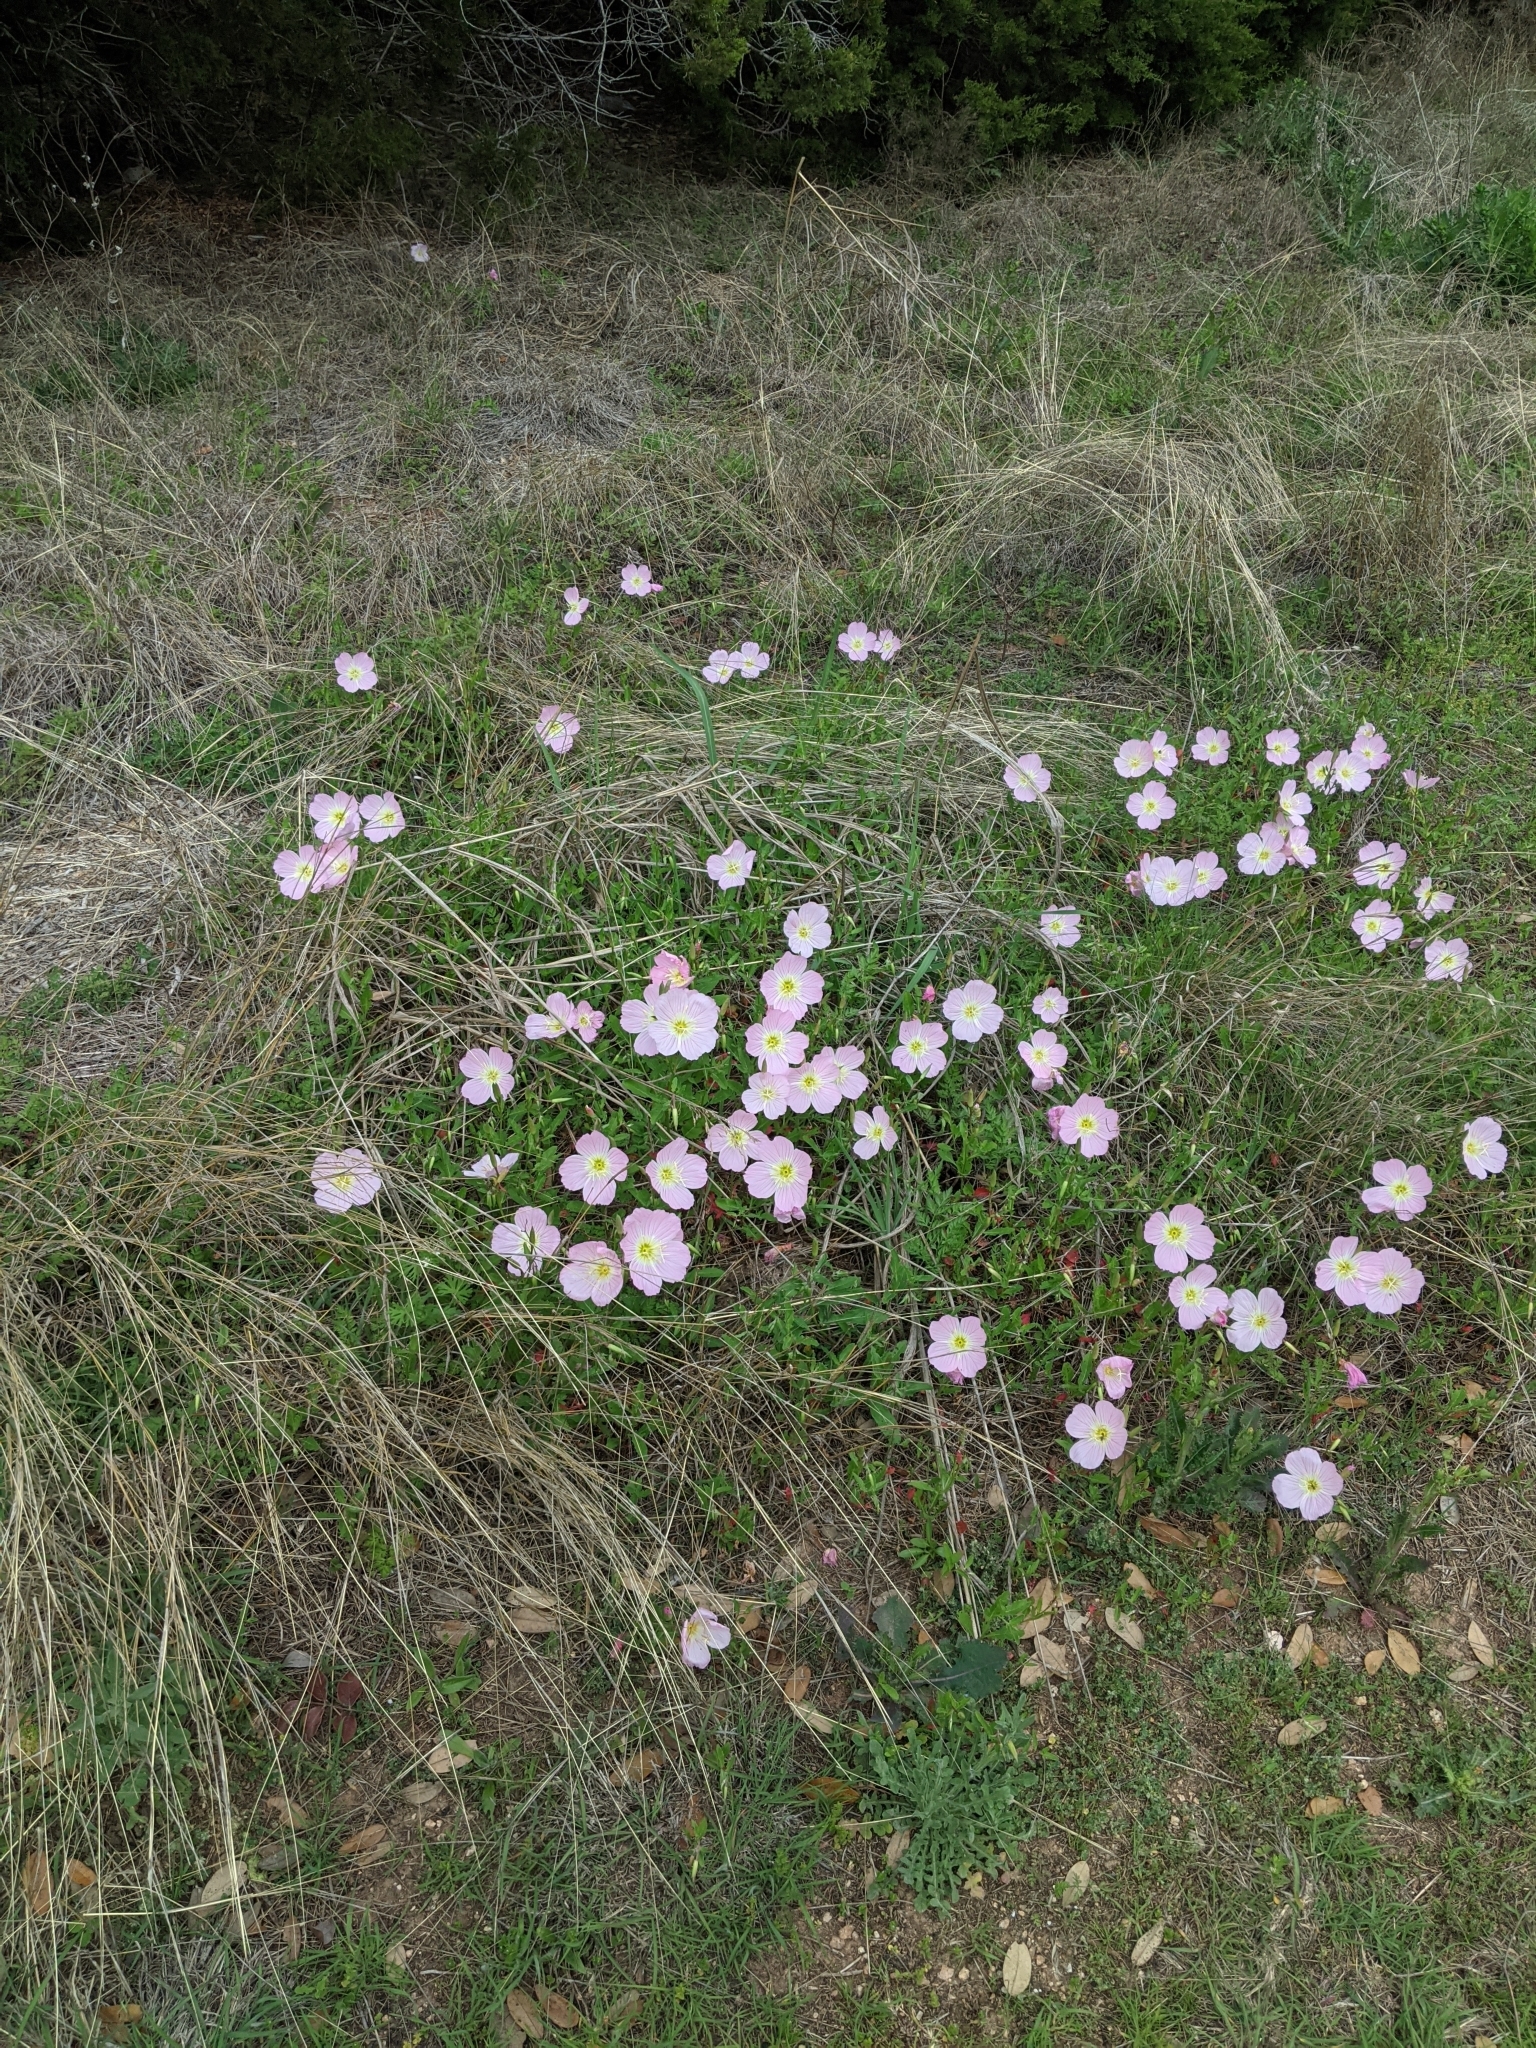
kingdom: Plantae
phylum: Tracheophyta
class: Magnoliopsida
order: Myrtales
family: Onagraceae
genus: Oenothera
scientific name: Oenothera speciosa
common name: White evening-primrose
